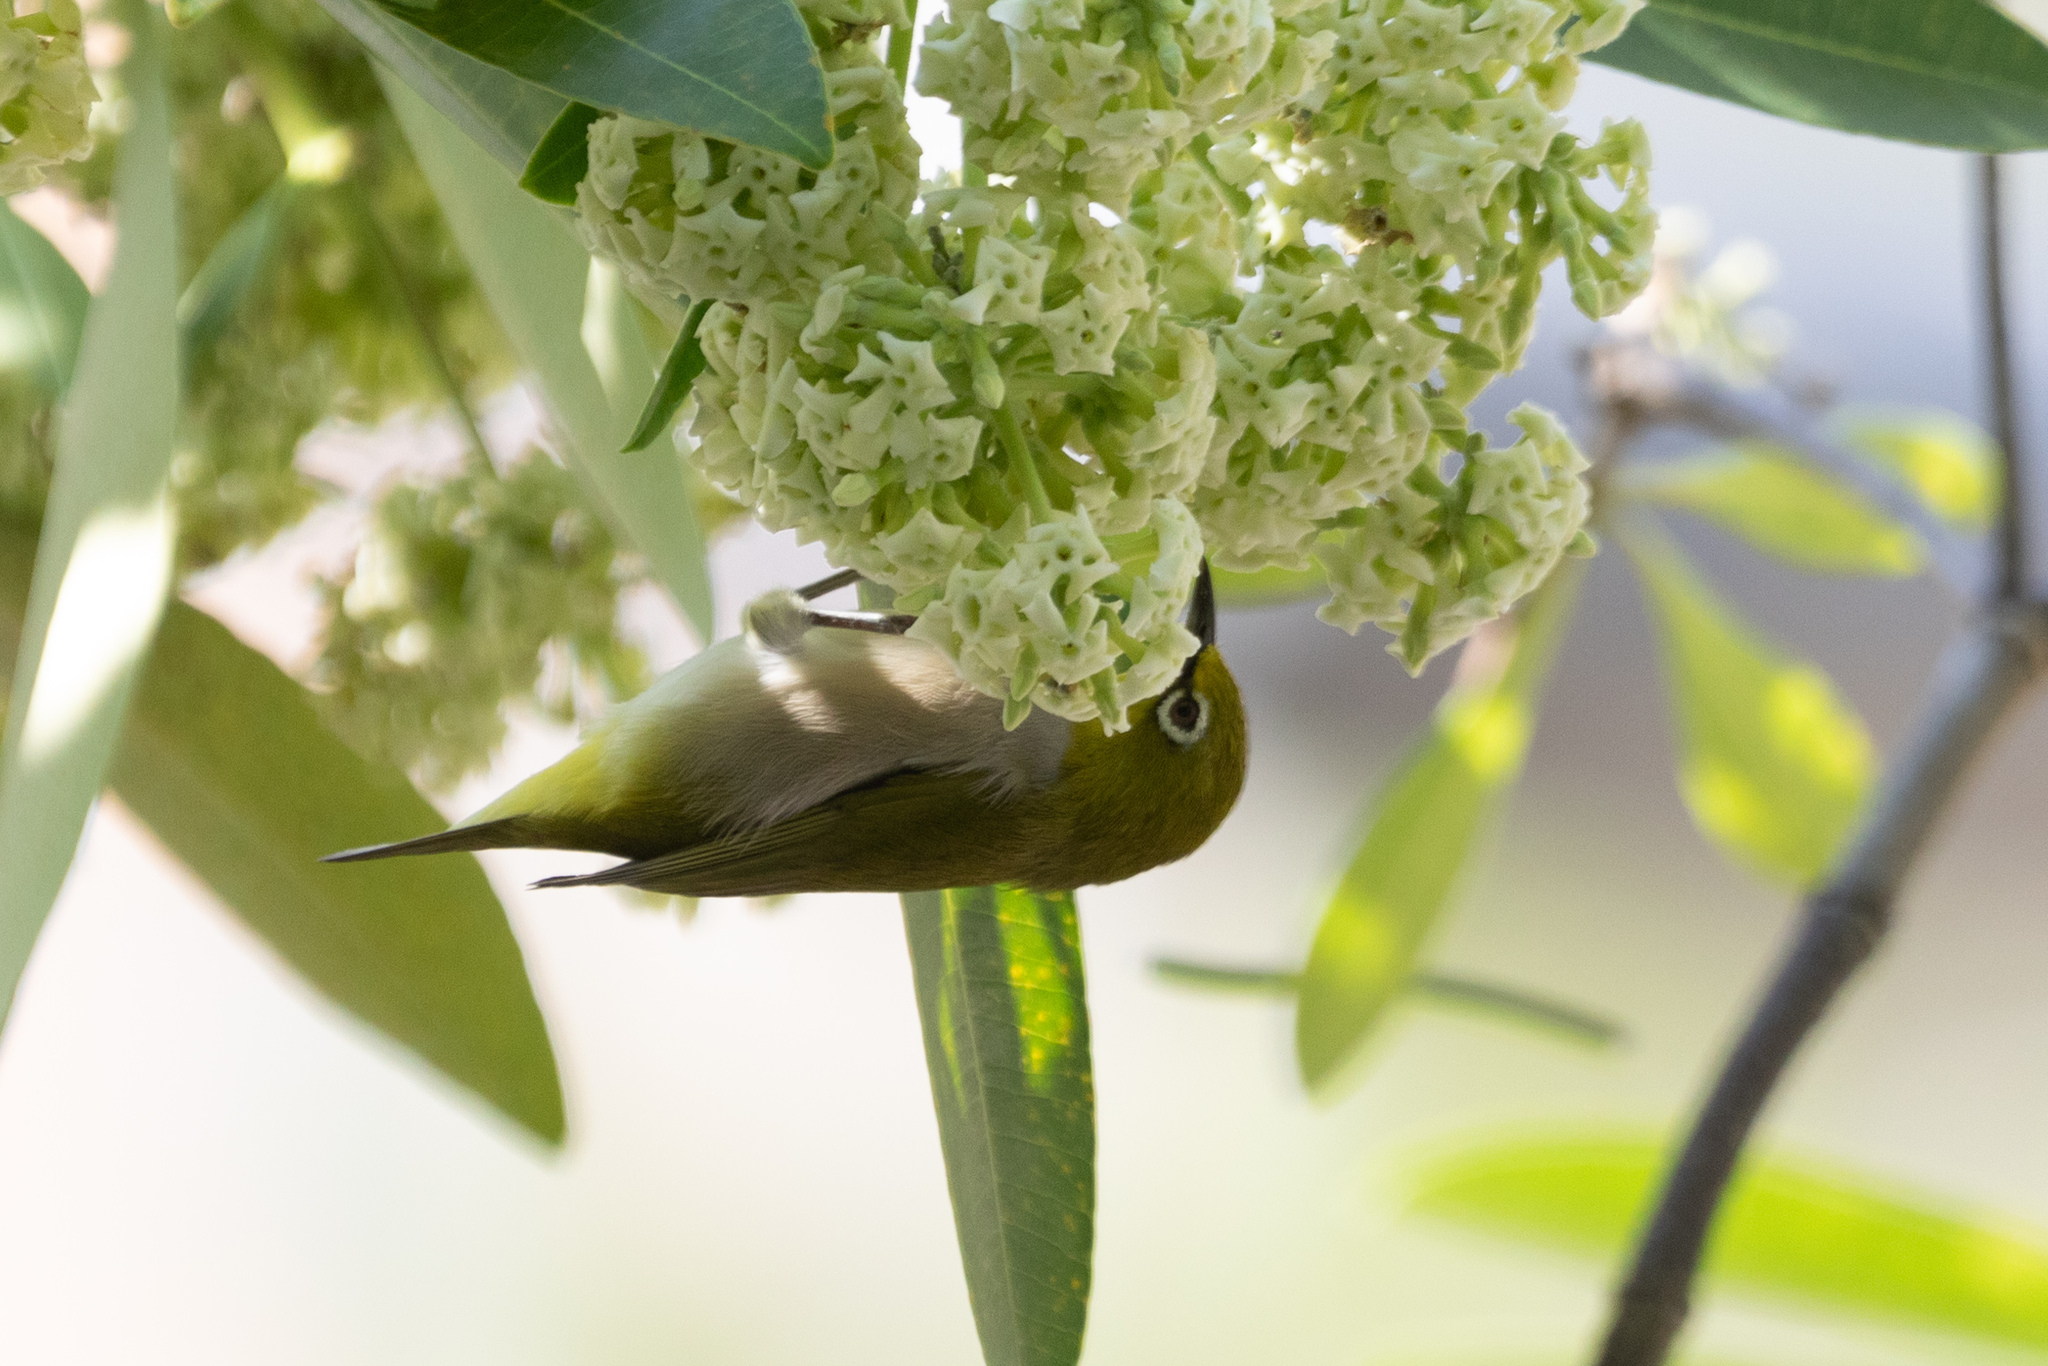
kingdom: Animalia
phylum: Chordata
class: Aves
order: Passeriformes
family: Zosteropidae
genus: Zosterops
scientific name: Zosterops simplex
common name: Swinhoe's white-eye
